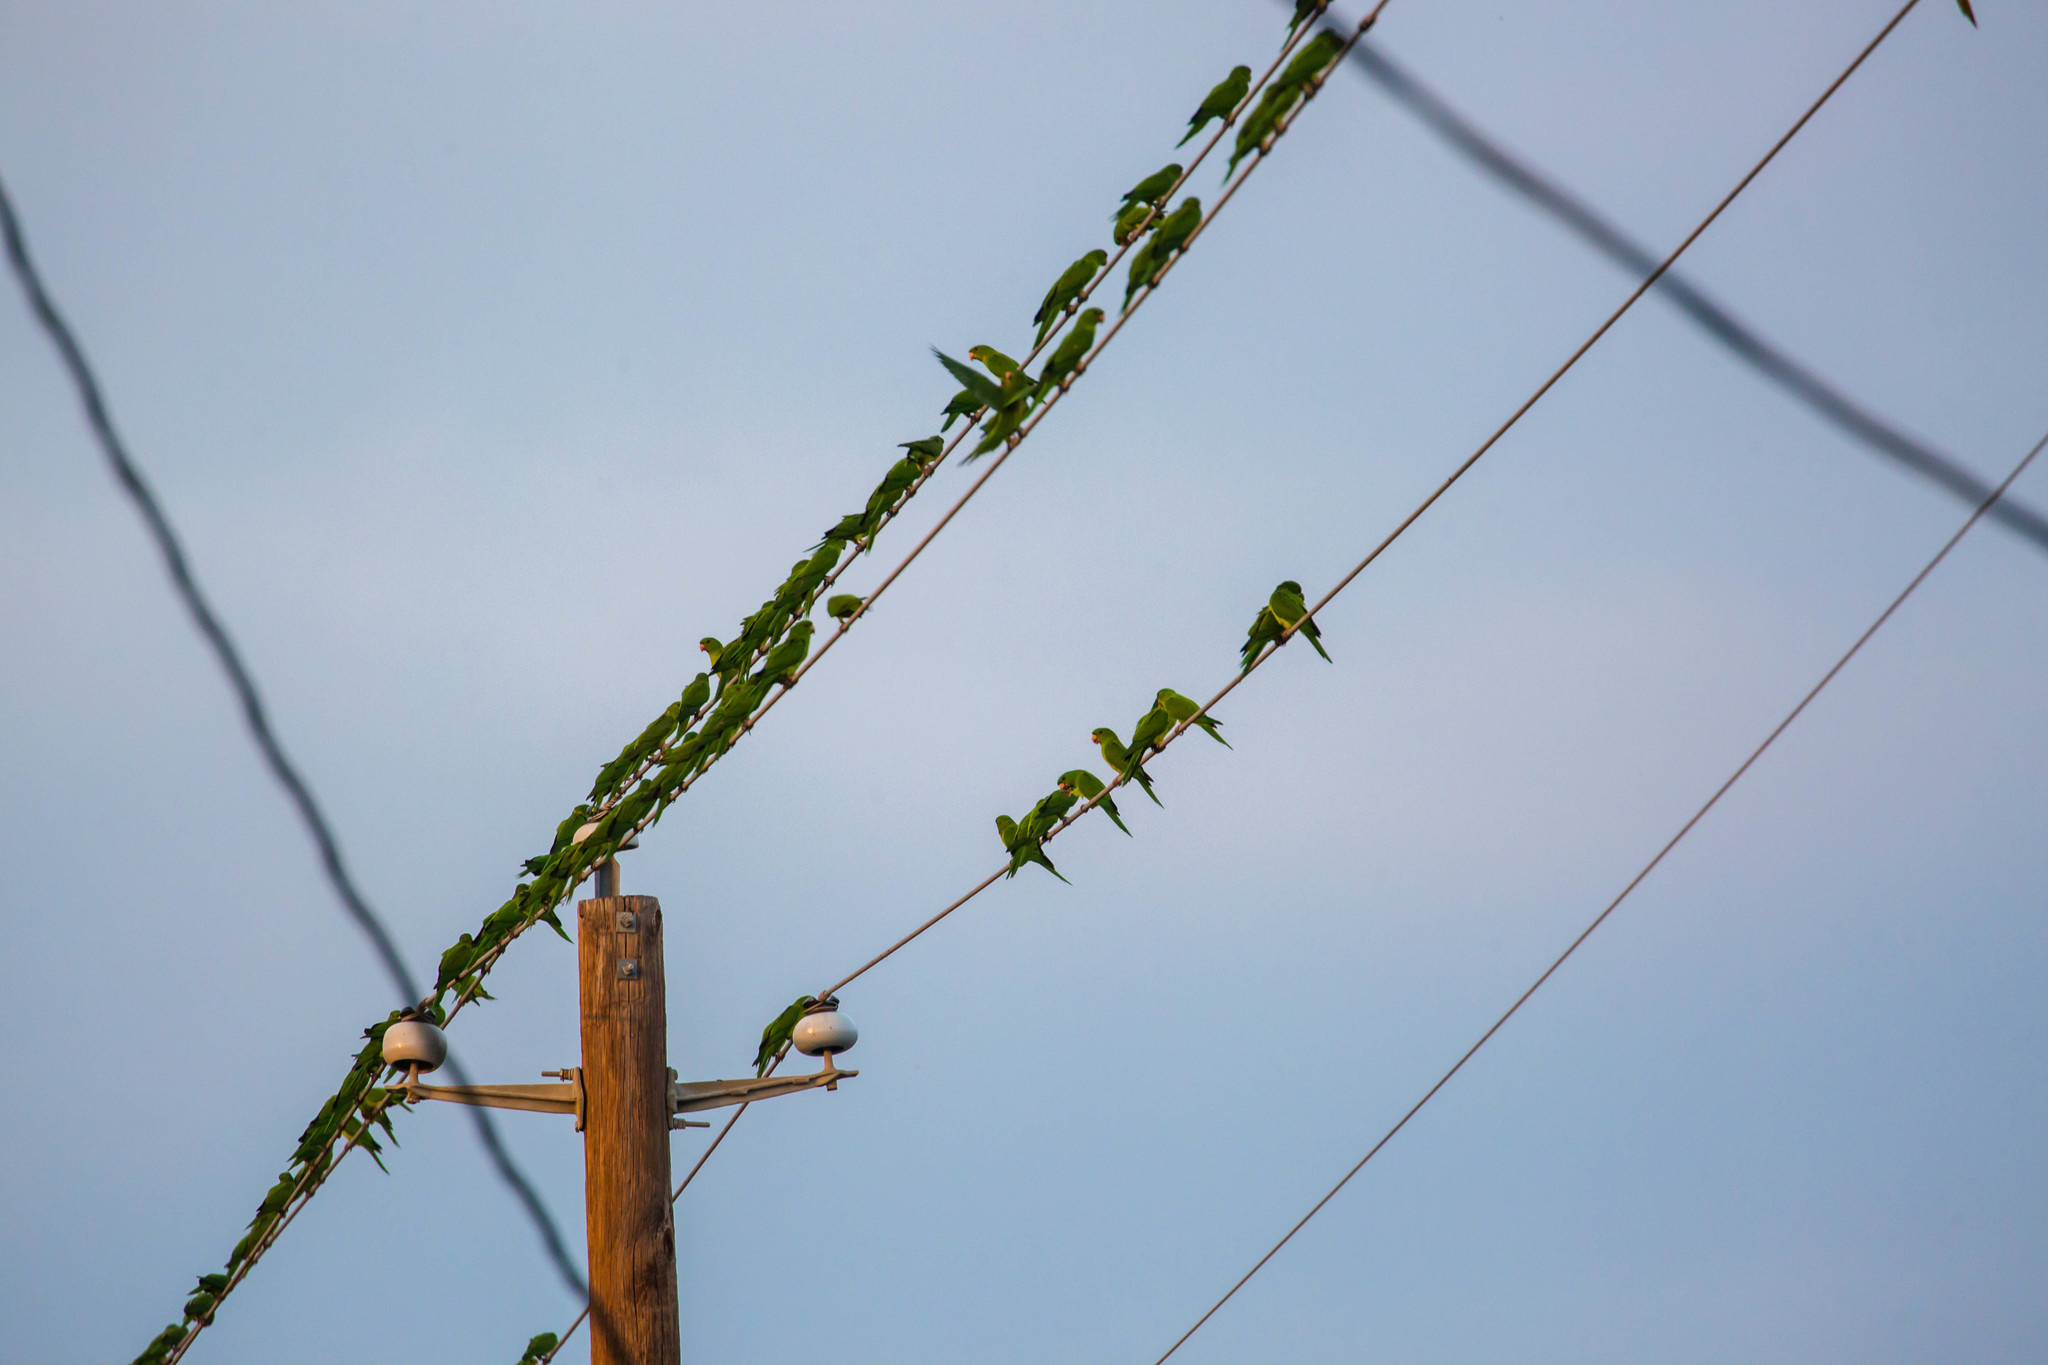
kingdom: Animalia
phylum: Chordata
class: Aves
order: Psittaciformes
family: Psittacidae
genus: Aratinga
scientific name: Aratinga holochlora
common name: Green parakeet
